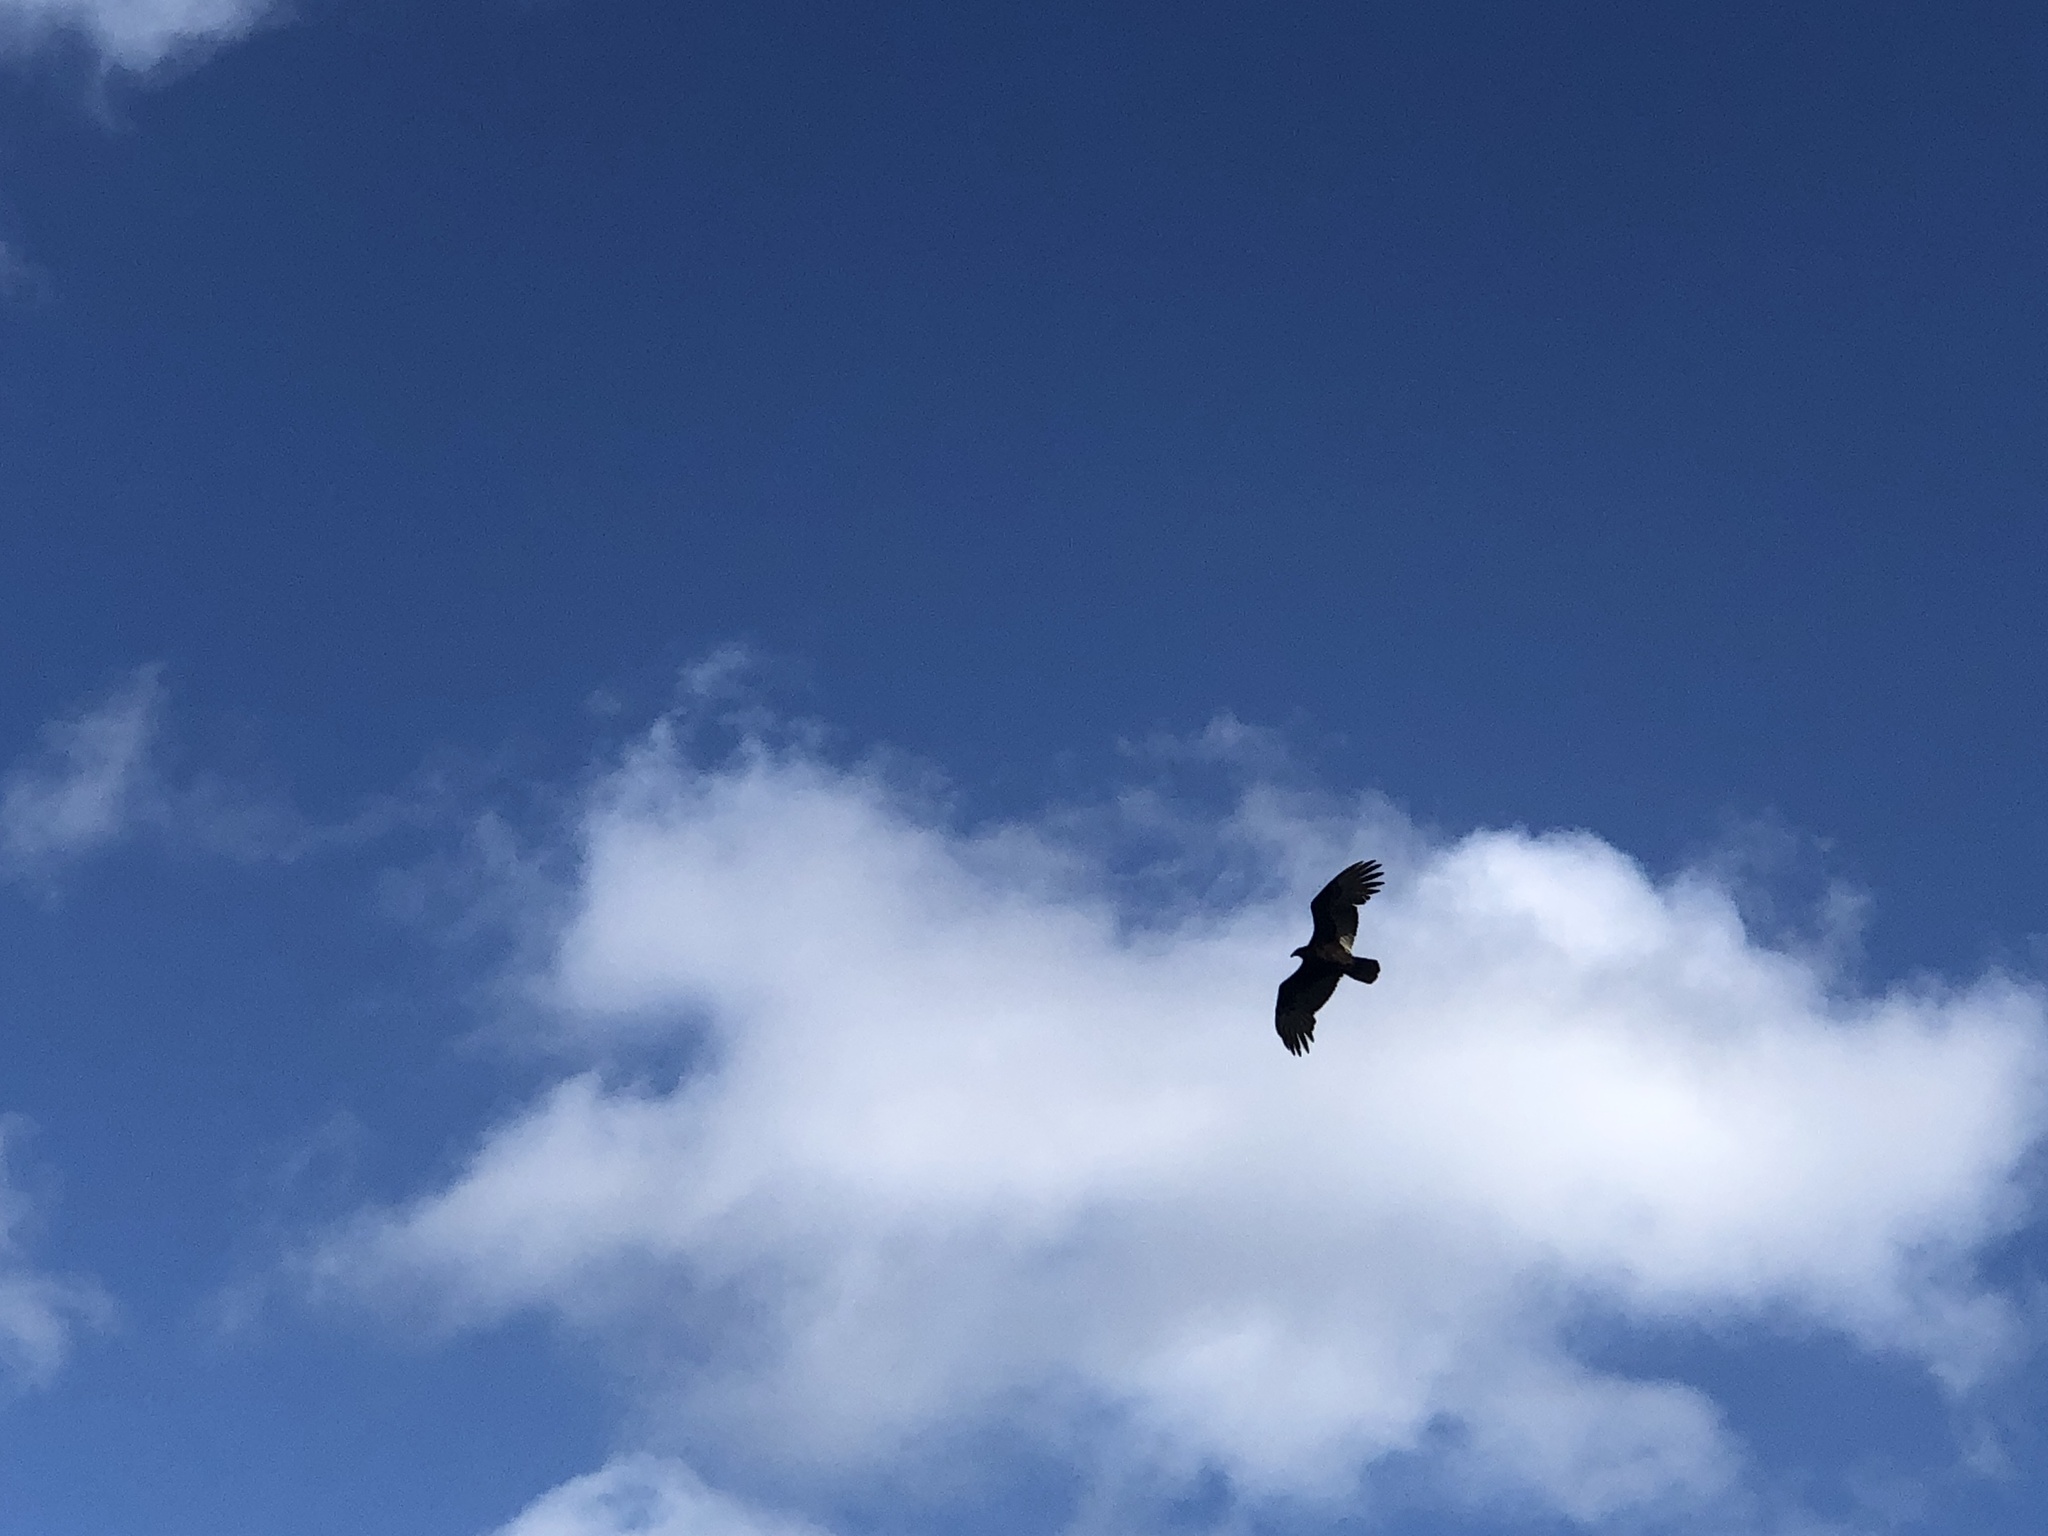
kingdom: Animalia
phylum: Chordata
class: Aves
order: Accipitriformes
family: Cathartidae
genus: Cathartes
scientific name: Cathartes aura
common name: Turkey vulture
